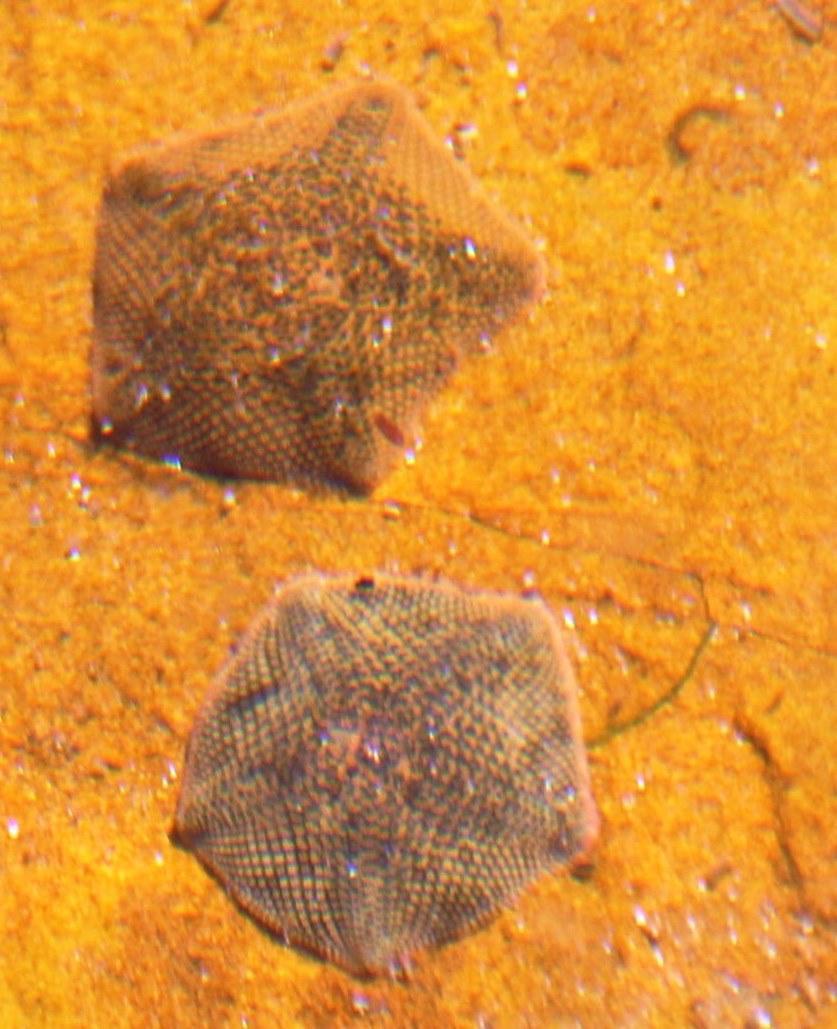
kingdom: Animalia
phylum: Echinodermata
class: Asteroidea
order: Valvatida
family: Asterinidae
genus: Parvulastra
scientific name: Parvulastra exigua
